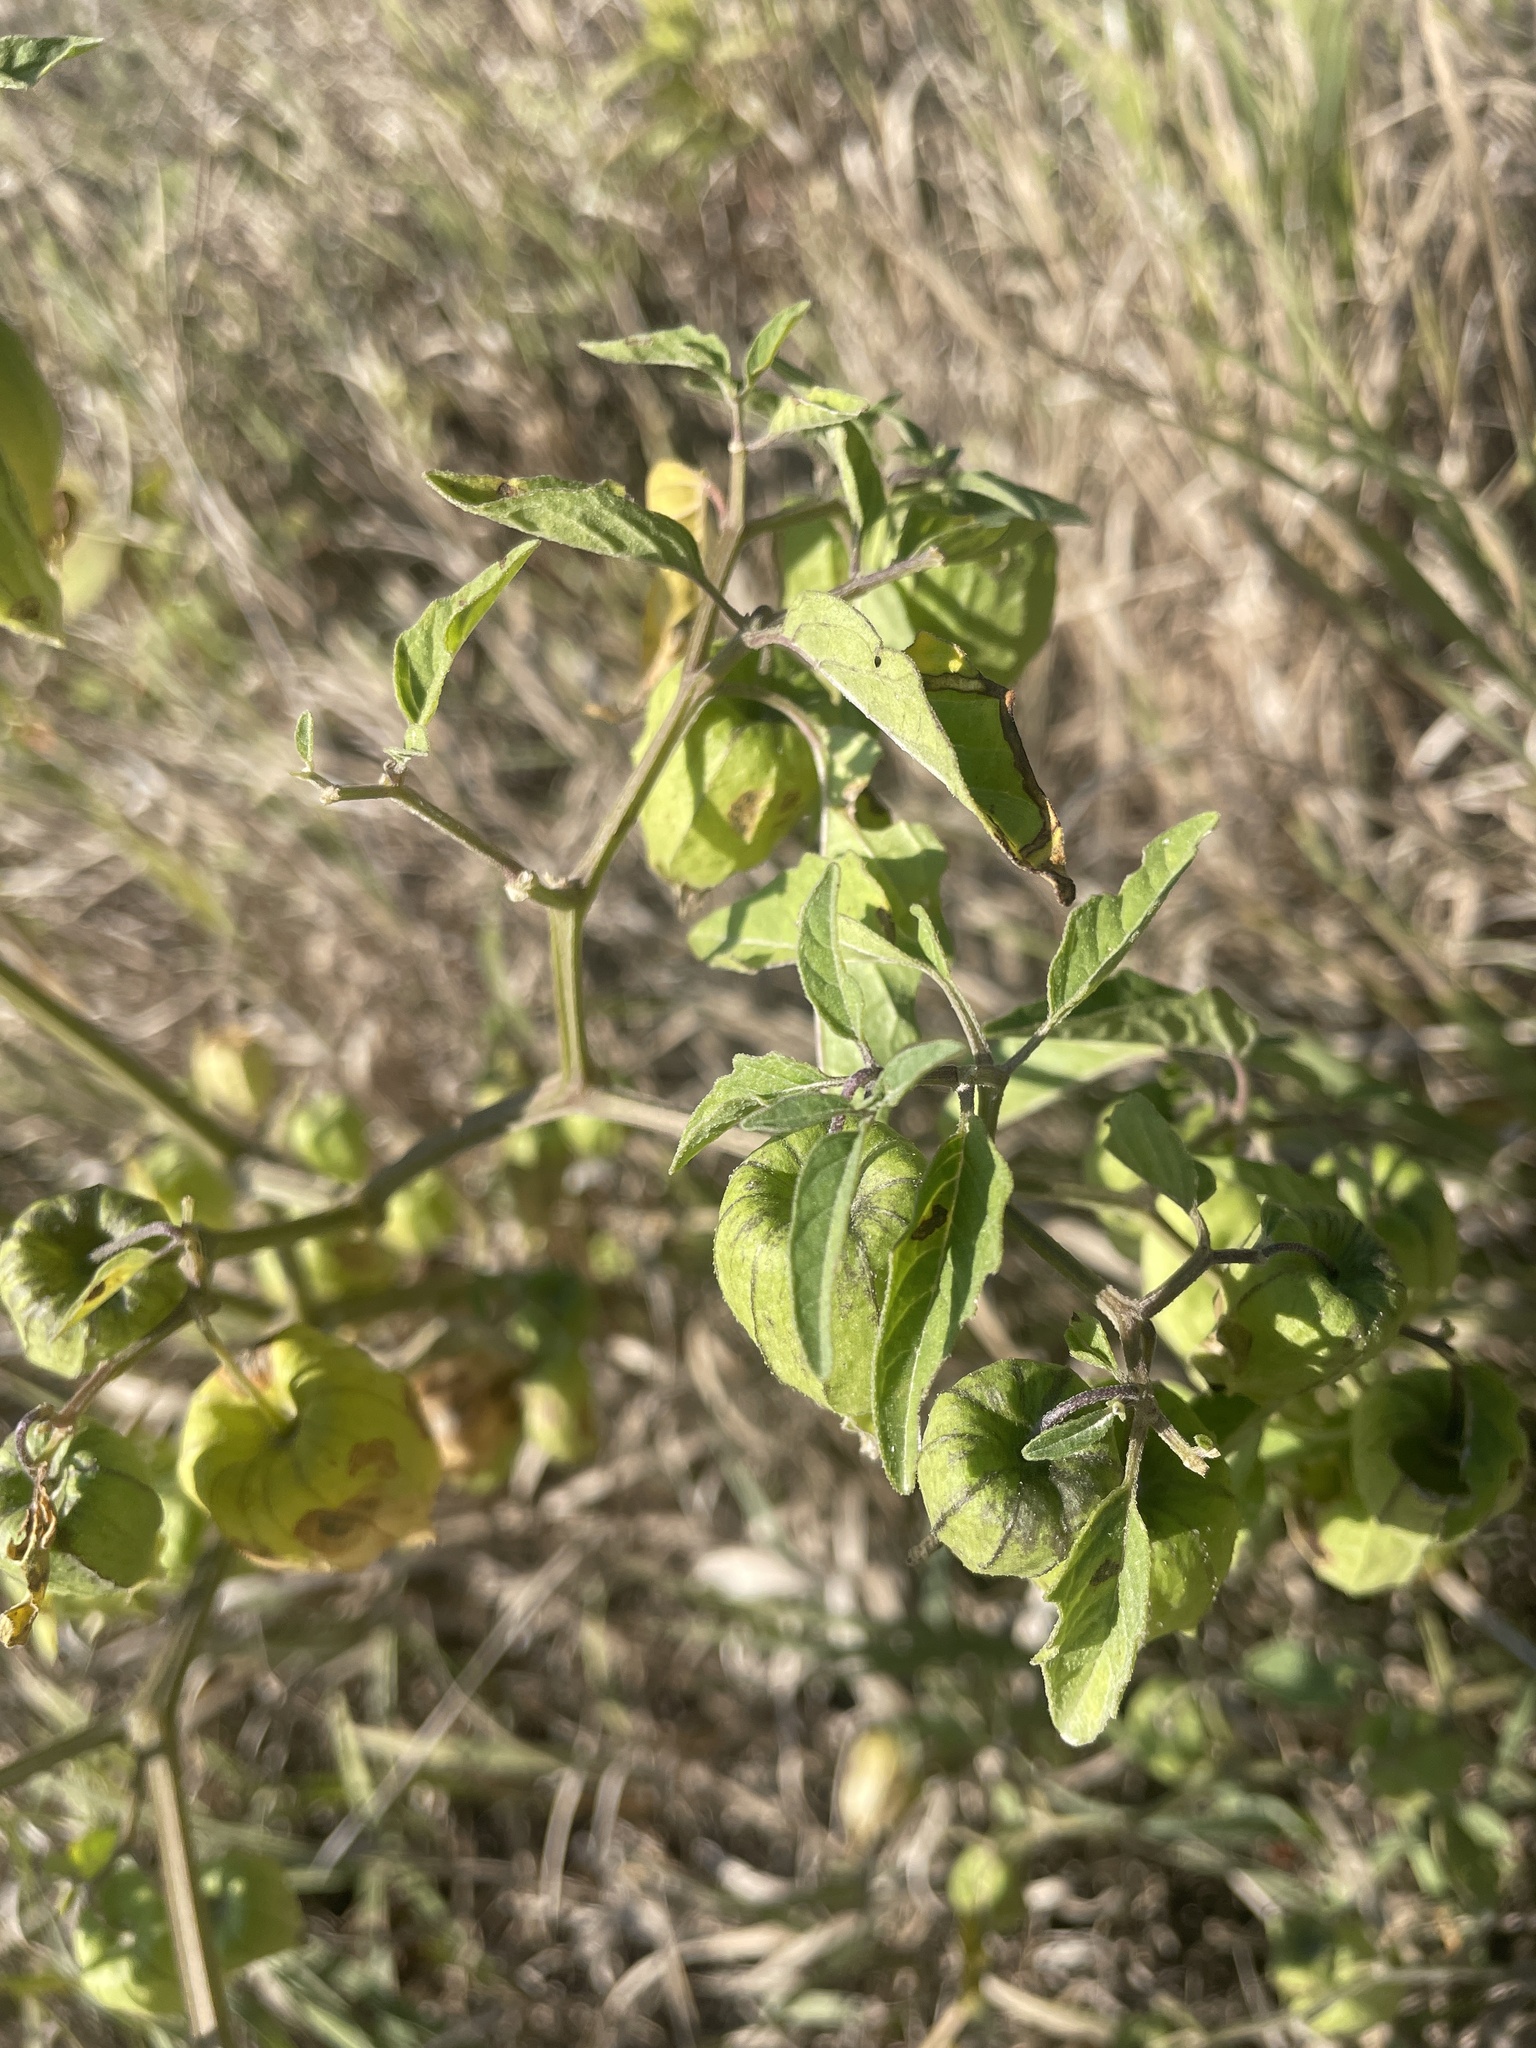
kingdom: Plantae
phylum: Tracheophyta
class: Magnoliopsida
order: Solanales
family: Solanaceae
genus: Physalis
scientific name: Physalis longifolia
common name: Common ground-cherry
